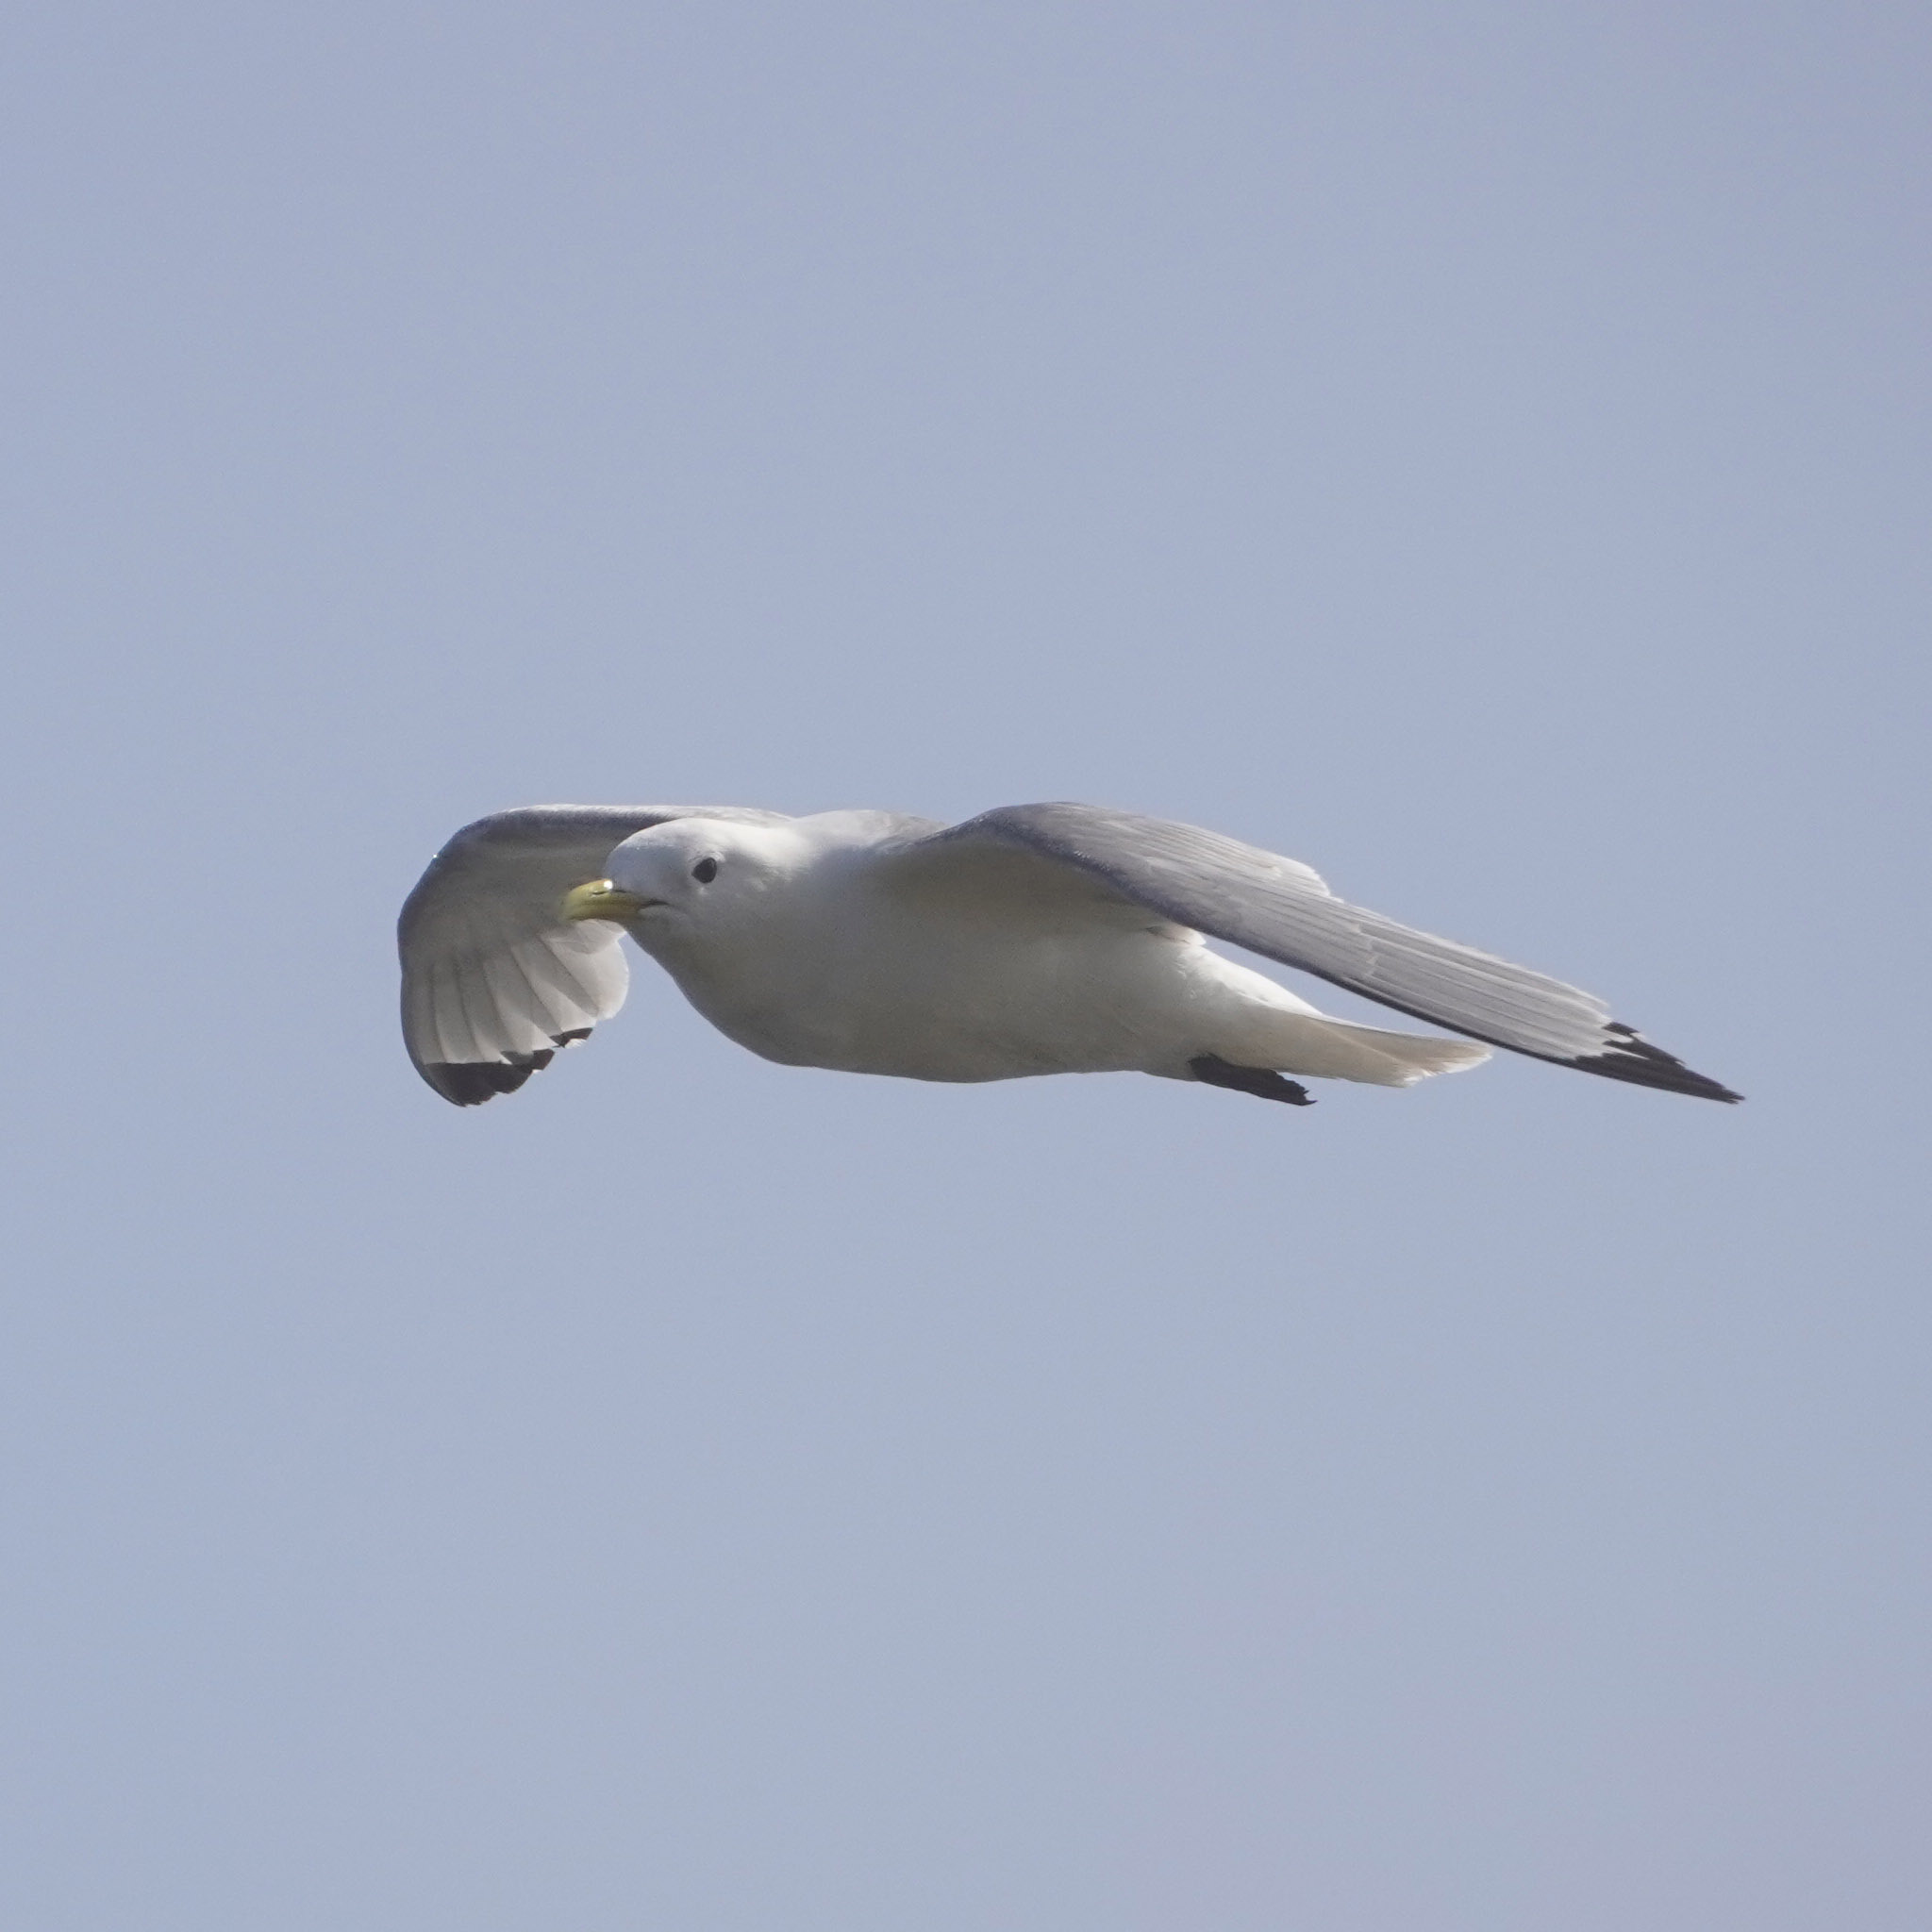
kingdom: Animalia
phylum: Chordata
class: Aves
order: Charadriiformes
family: Laridae
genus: Rissa
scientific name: Rissa tridactyla
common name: Black-legged kittiwake
